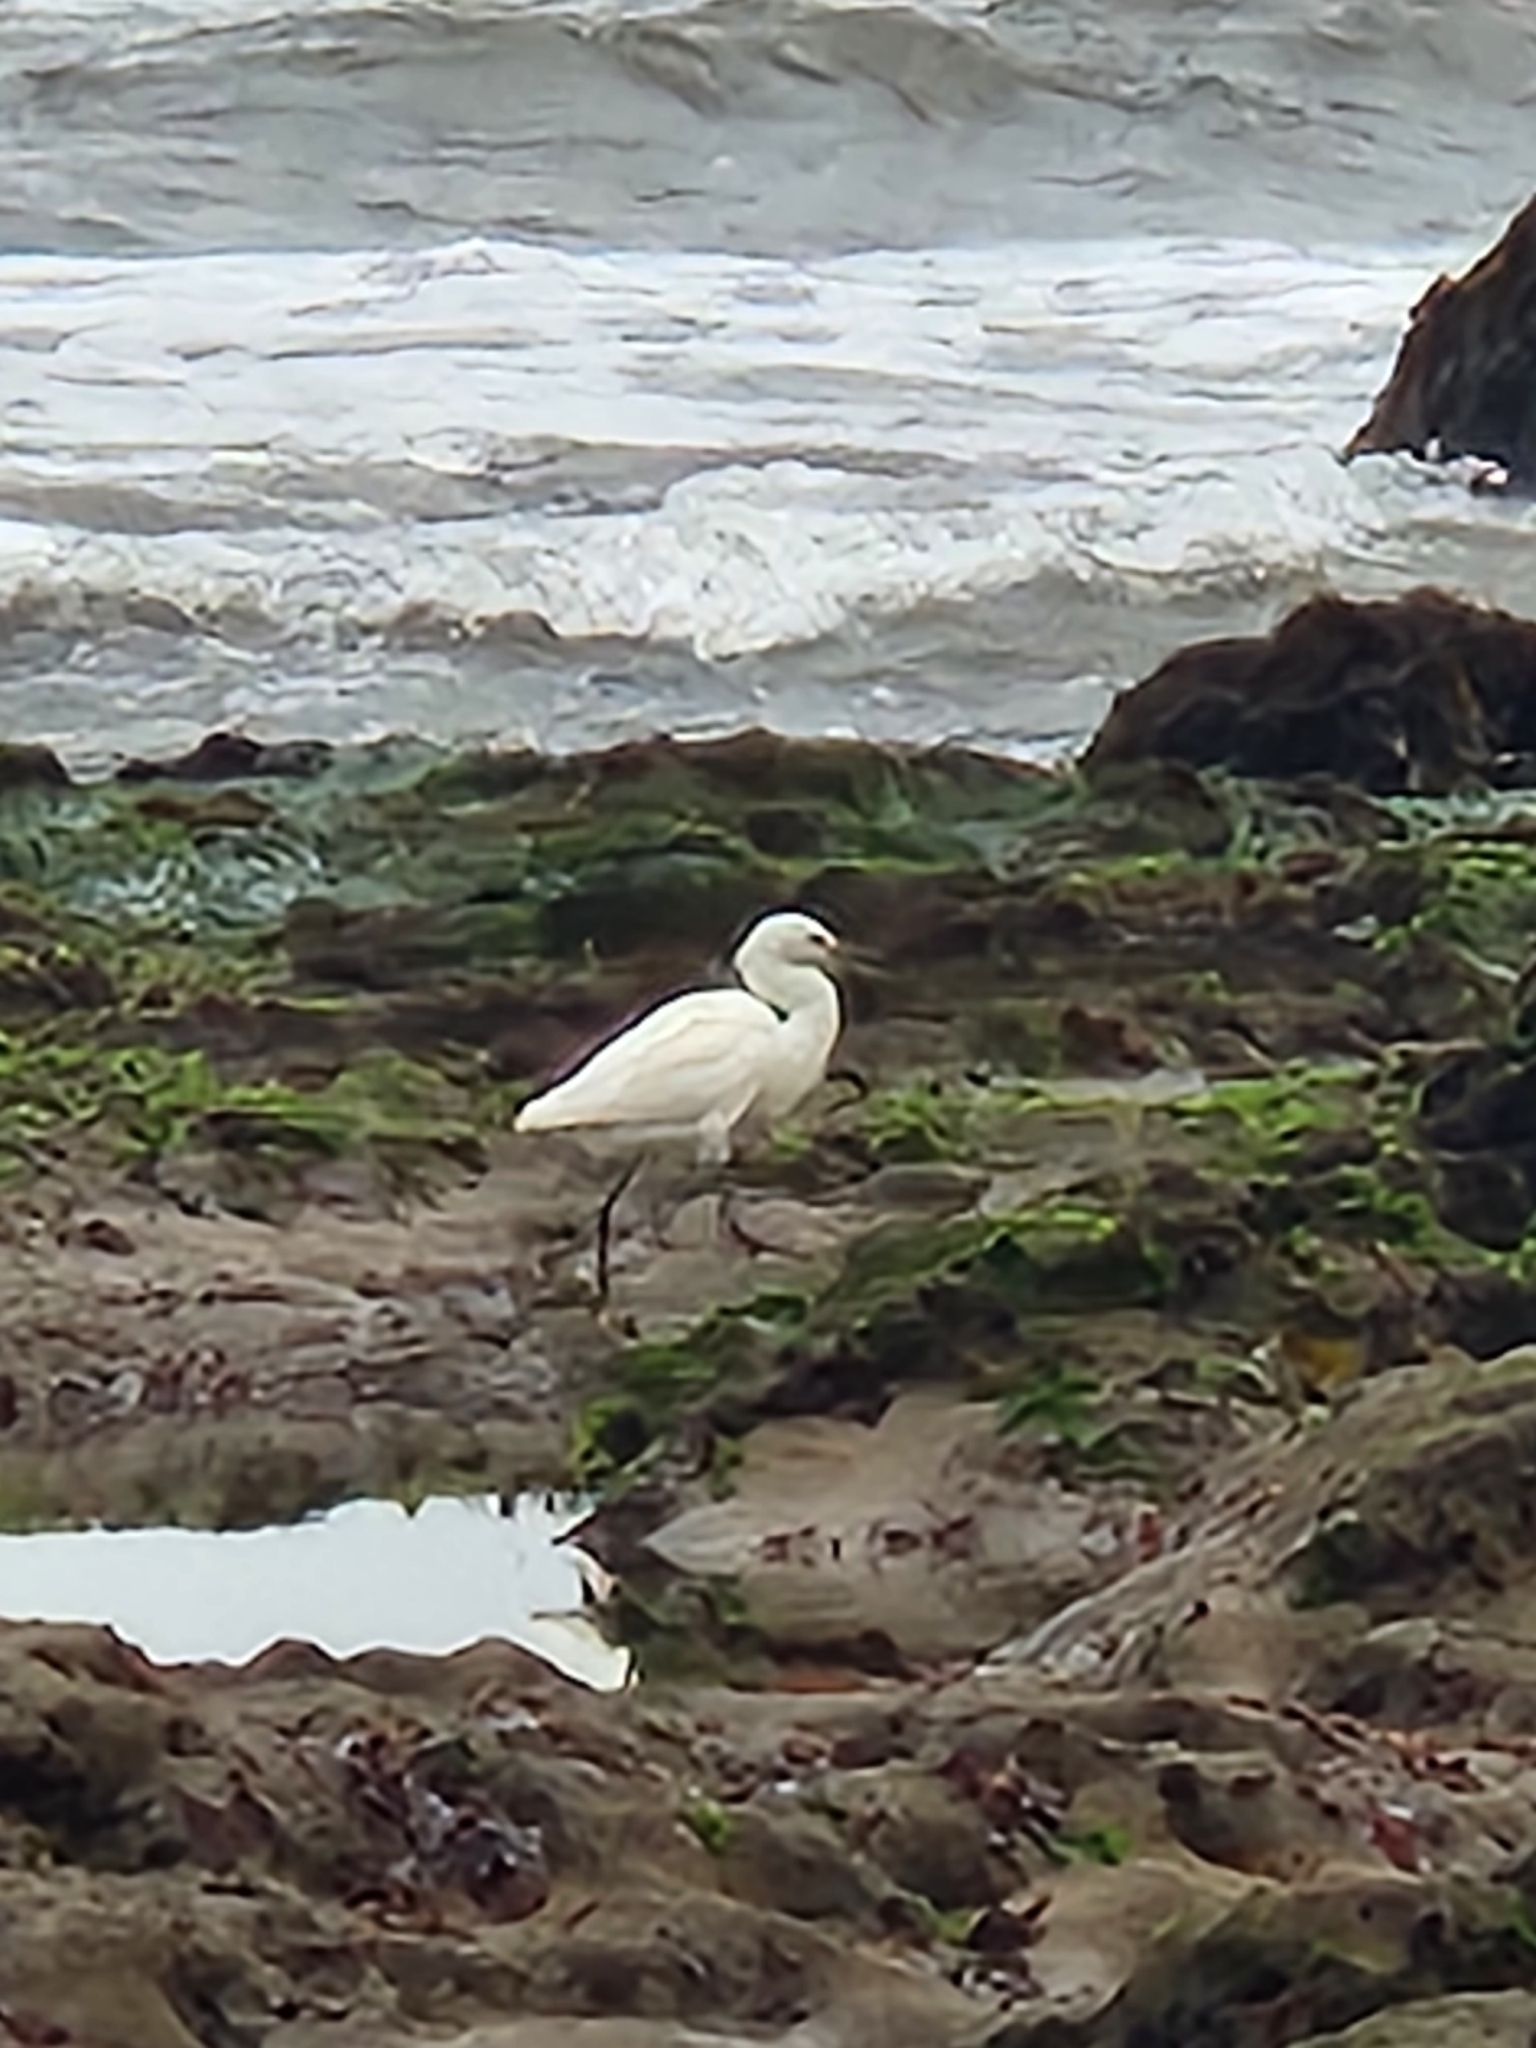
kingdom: Animalia
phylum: Chordata
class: Aves
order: Pelecaniformes
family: Ardeidae
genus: Ardea
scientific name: Ardea alba
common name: Great egret
